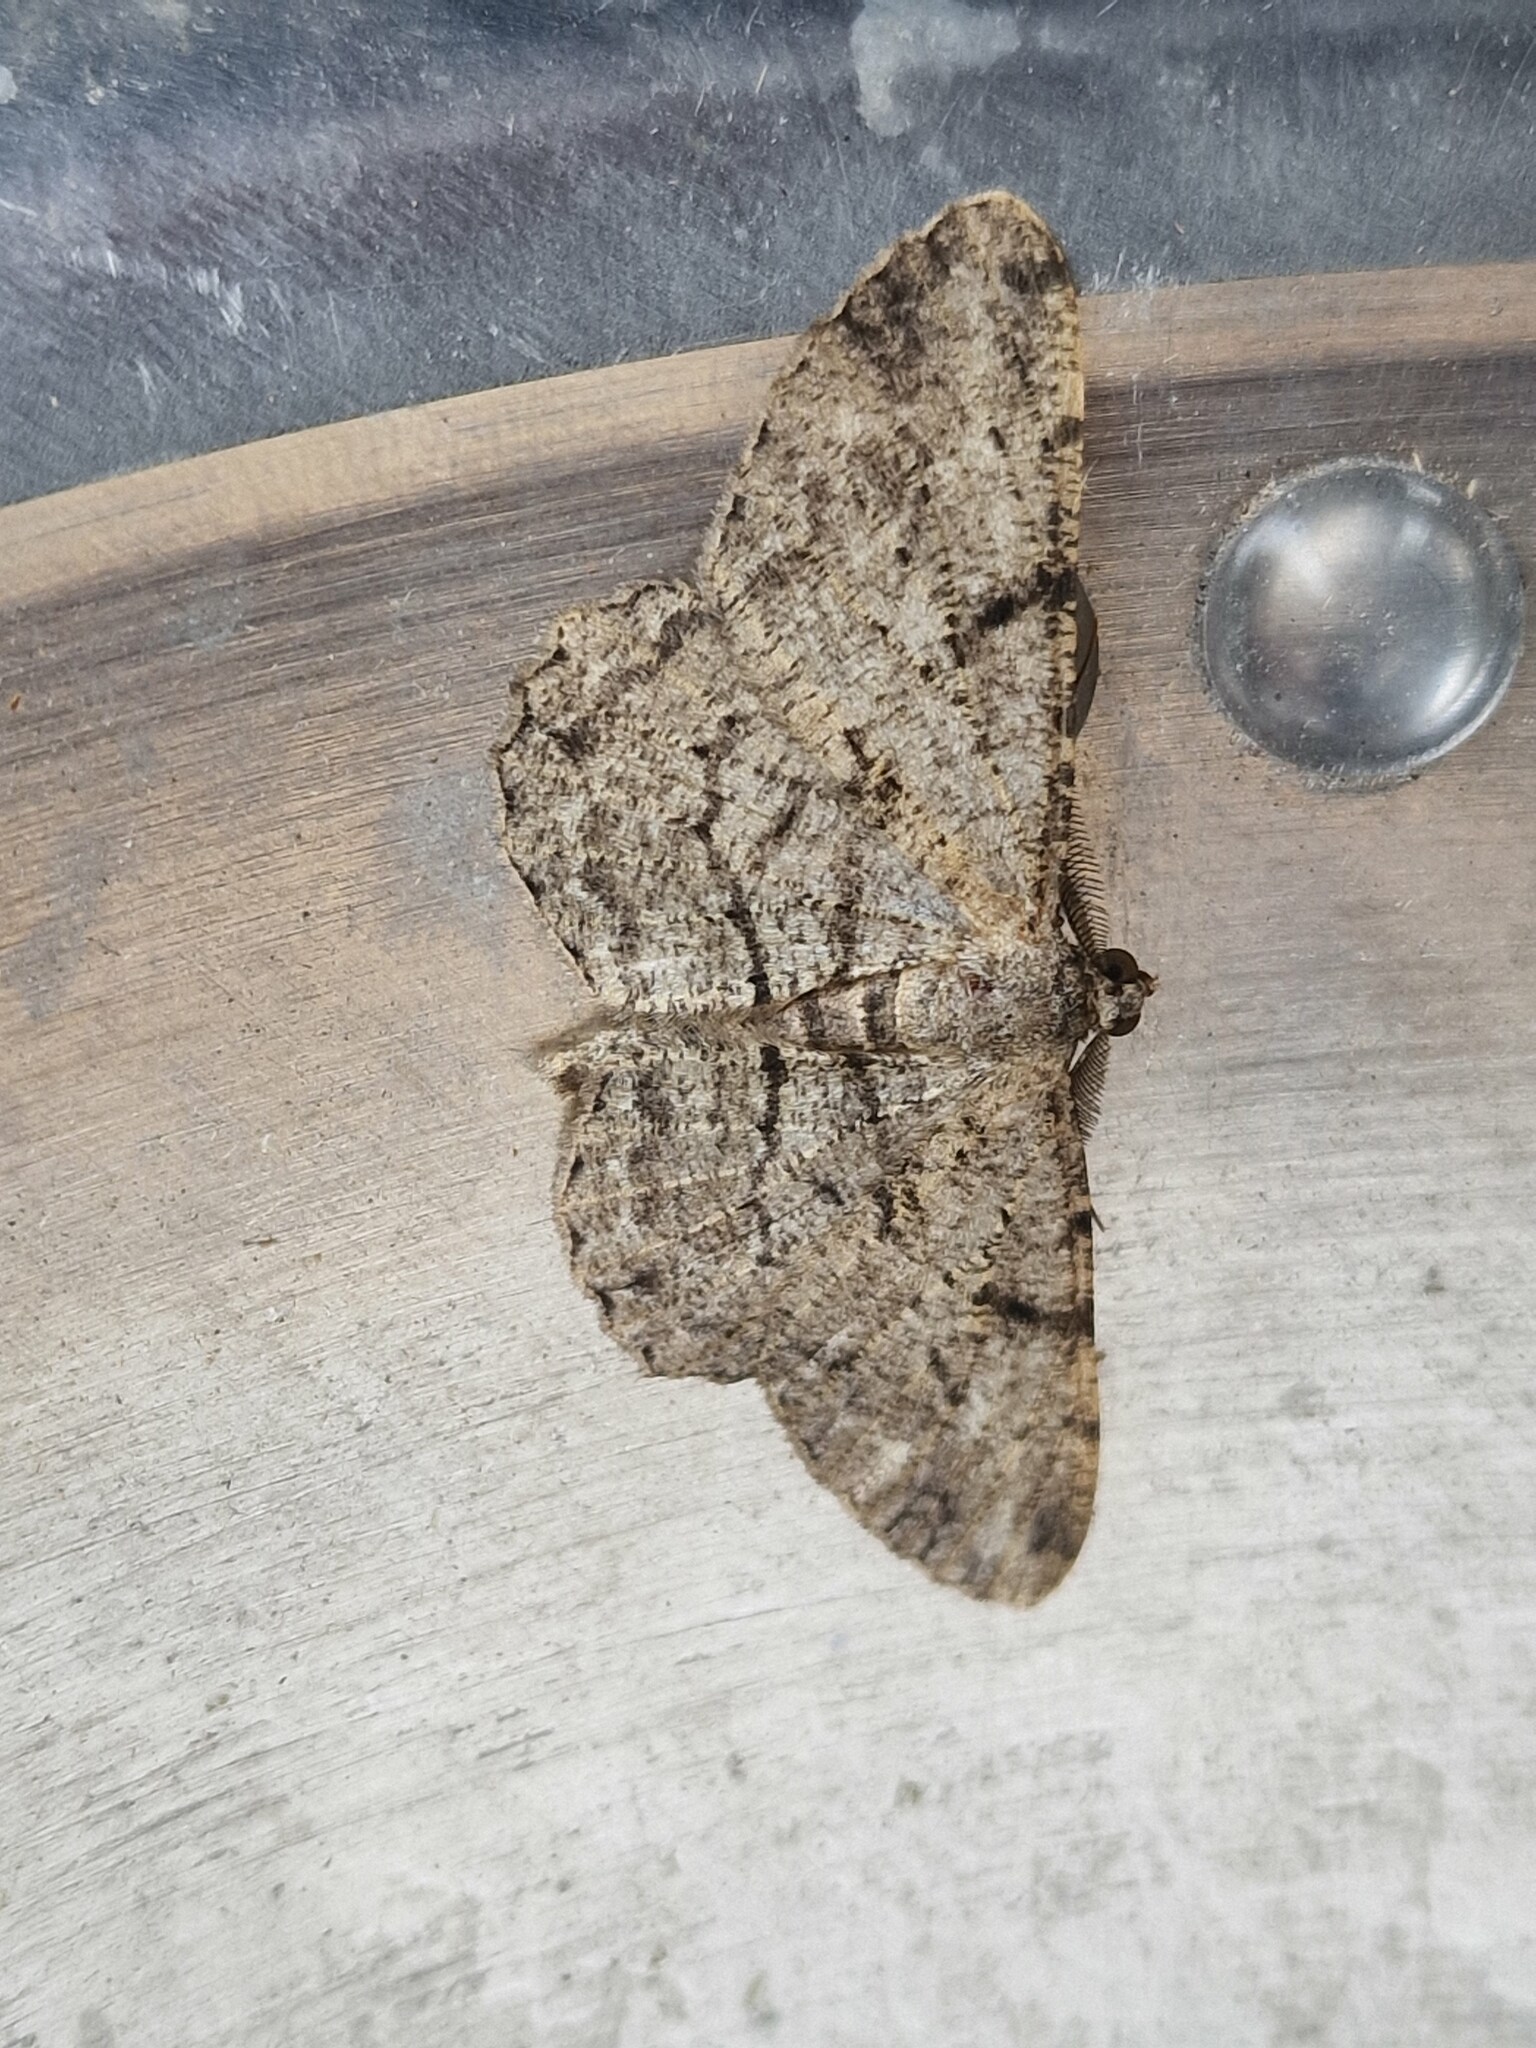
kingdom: Animalia
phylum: Arthropoda
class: Insecta
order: Lepidoptera
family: Geometridae
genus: Peribatodes
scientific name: Peribatodes rhomboidaria
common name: Willow beauty
